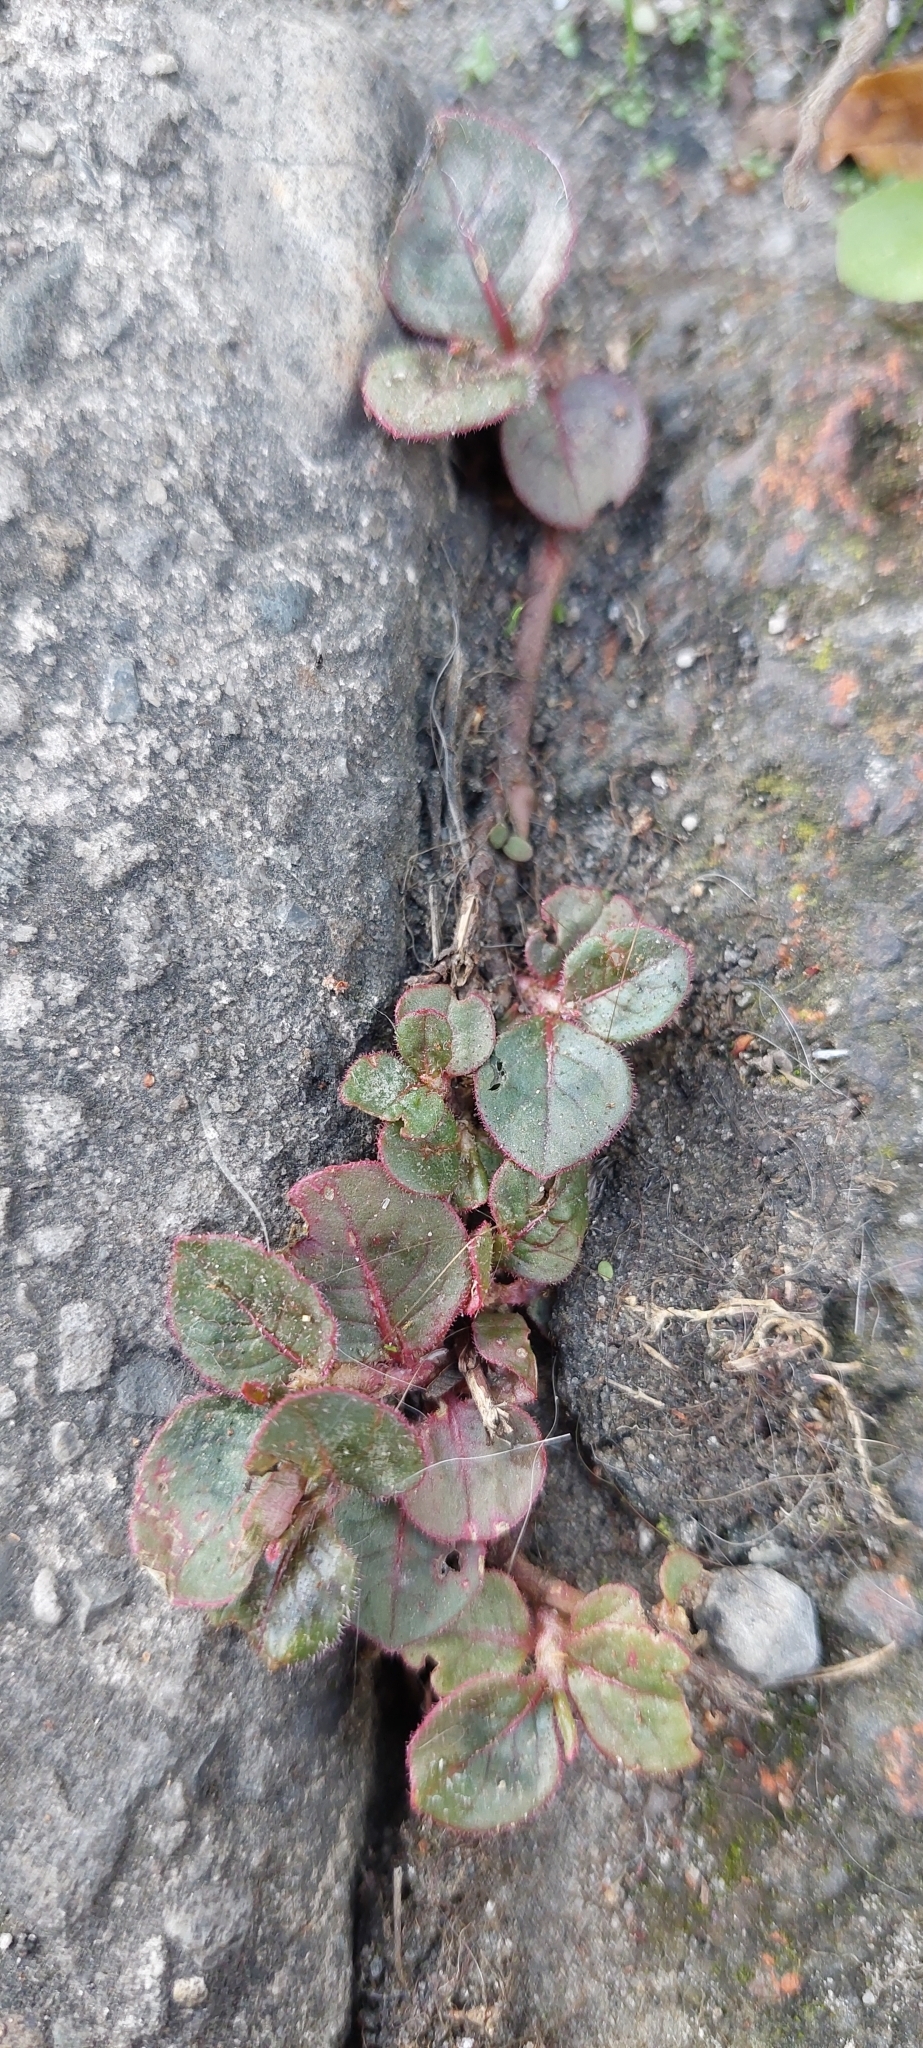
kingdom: Plantae
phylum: Tracheophyta
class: Magnoliopsida
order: Caryophyllales
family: Polygonaceae
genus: Persicaria
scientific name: Persicaria capitata
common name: Pinkhead smartweed
